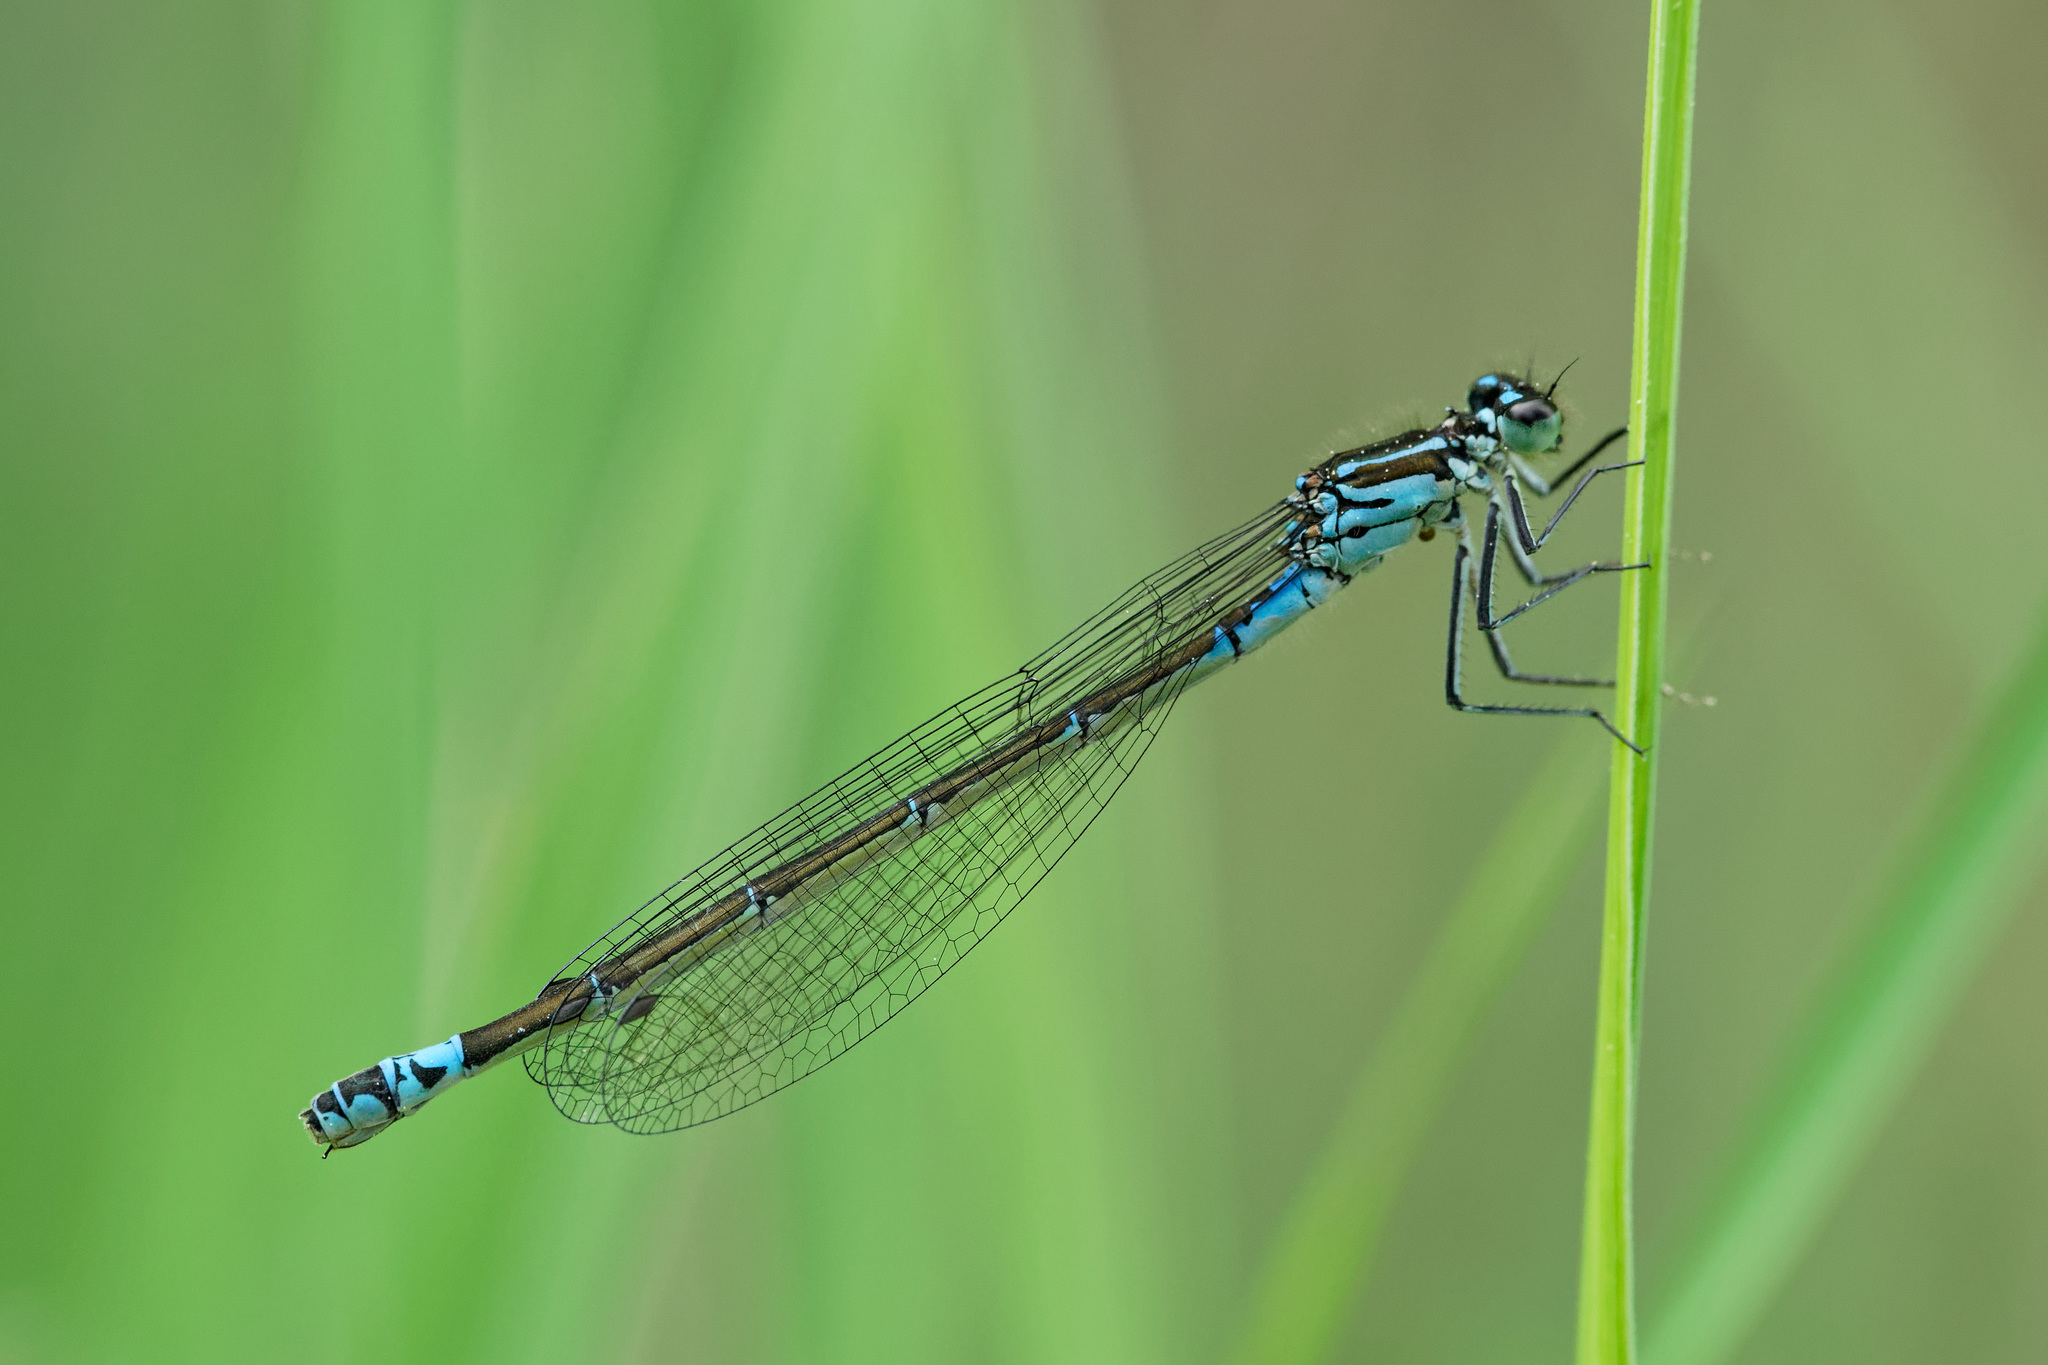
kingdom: Animalia
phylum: Arthropoda
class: Insecta
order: Odonata
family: Coenagrionidae
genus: Coenagrion
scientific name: Coenagrion pulchellum
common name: Variable bluet
